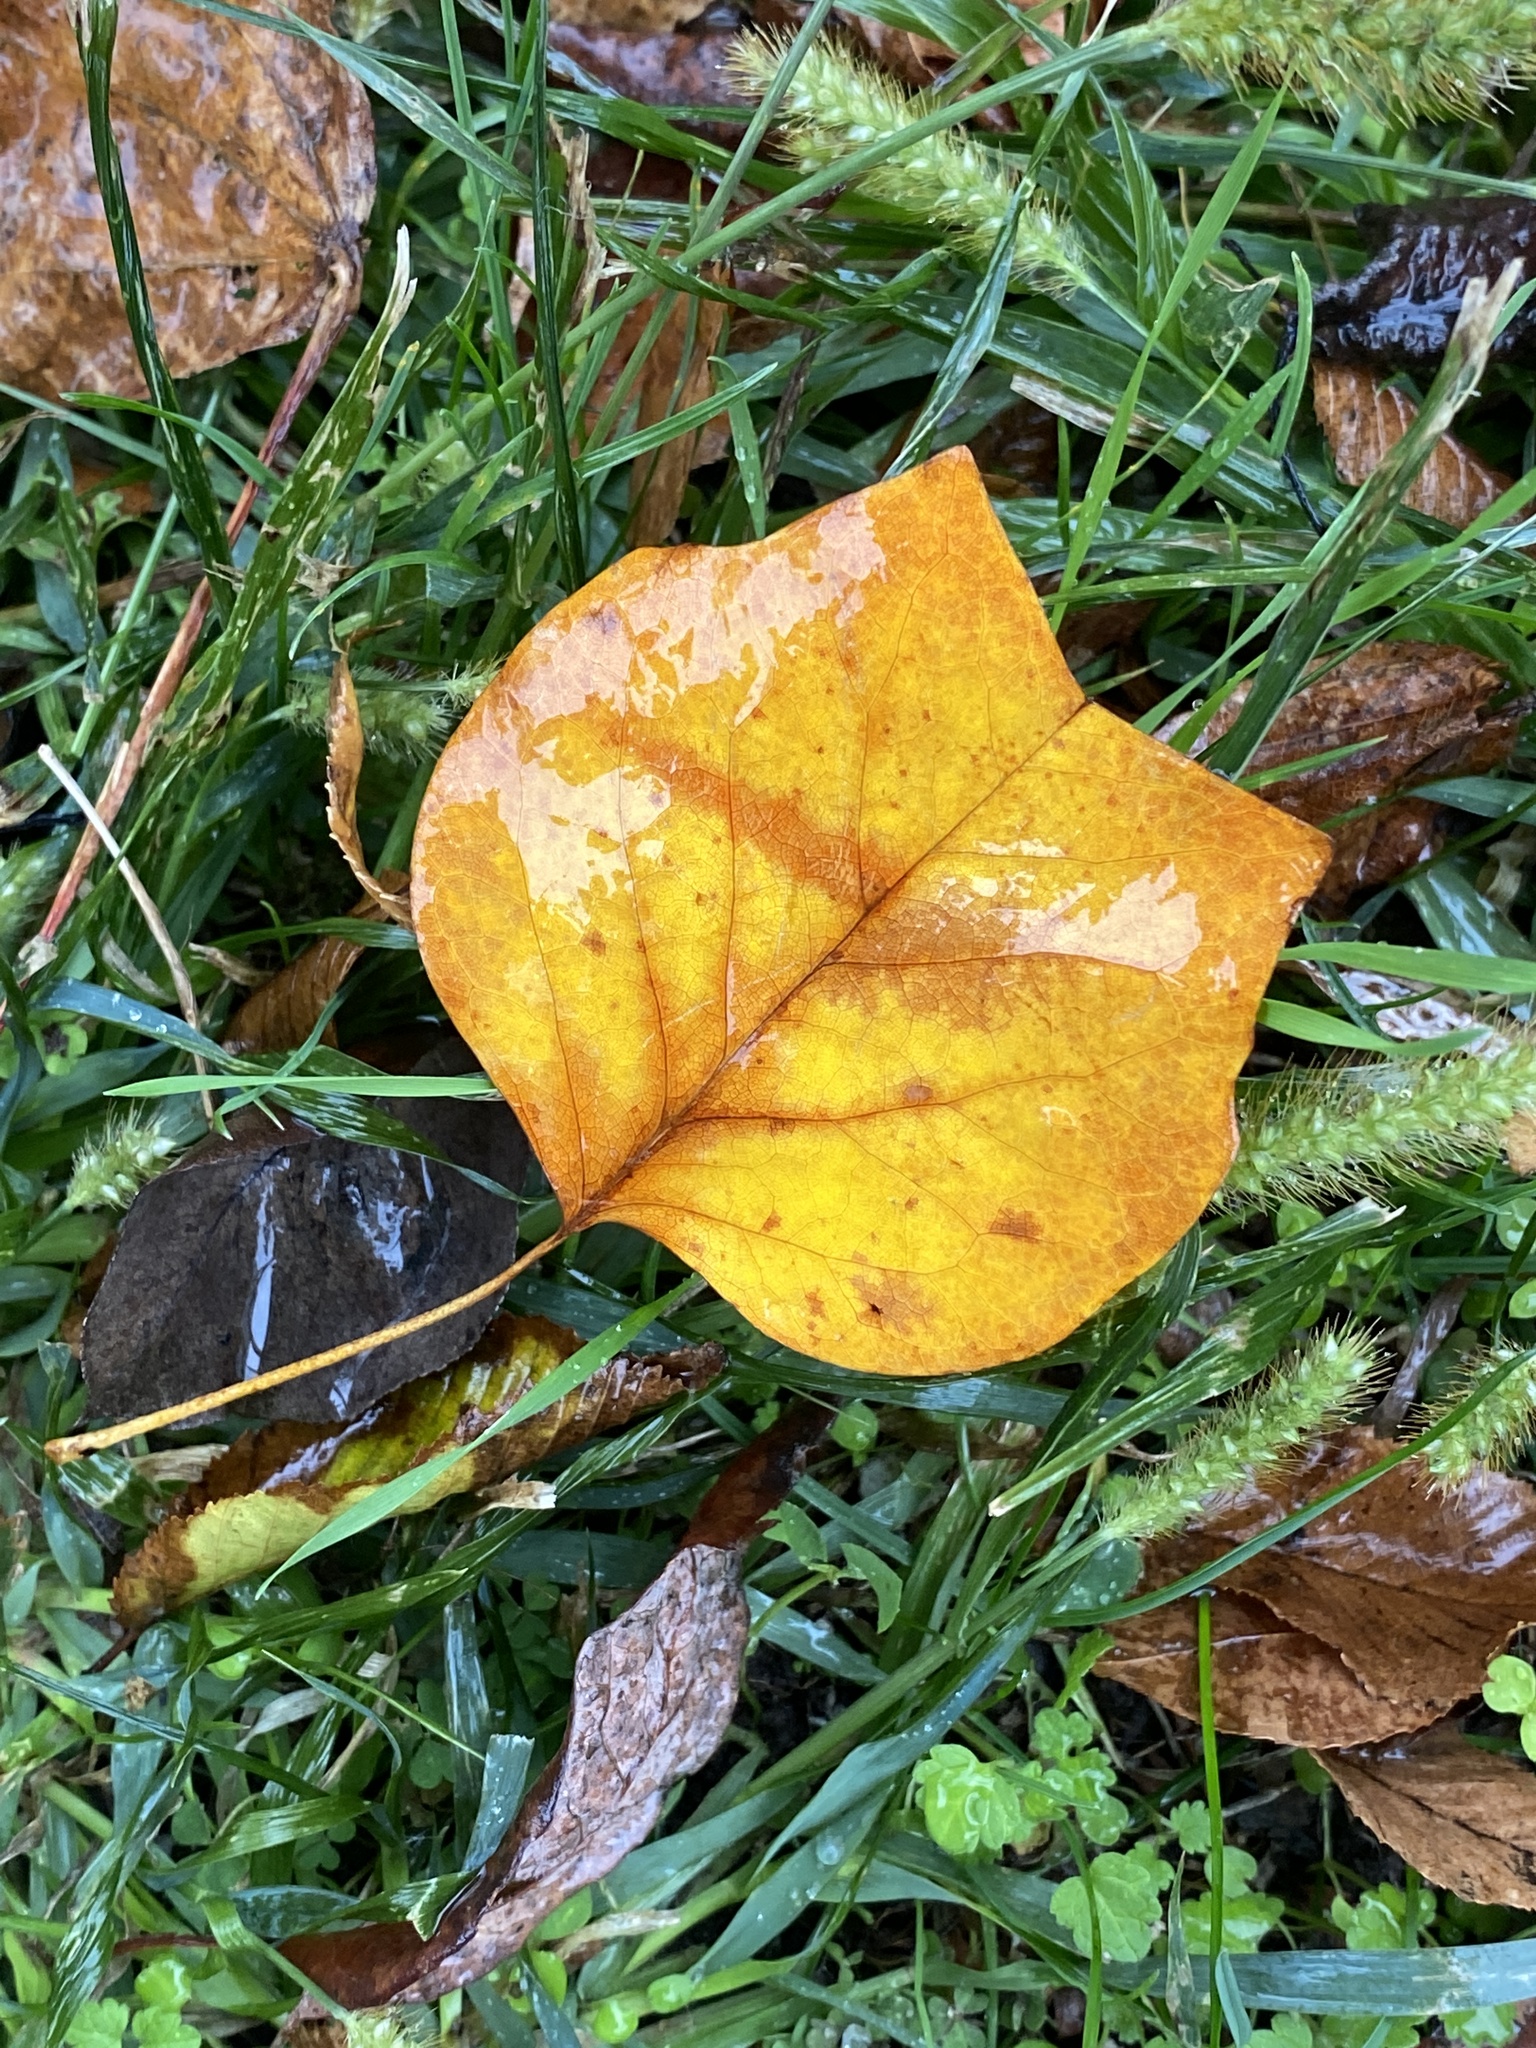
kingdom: Plantae
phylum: Tracheophyta
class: Magnoliopsida
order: Magnoliales
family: Magnoliaceae
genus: Liriodendron
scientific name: Liriodendron tulipifera
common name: Tulip tree
